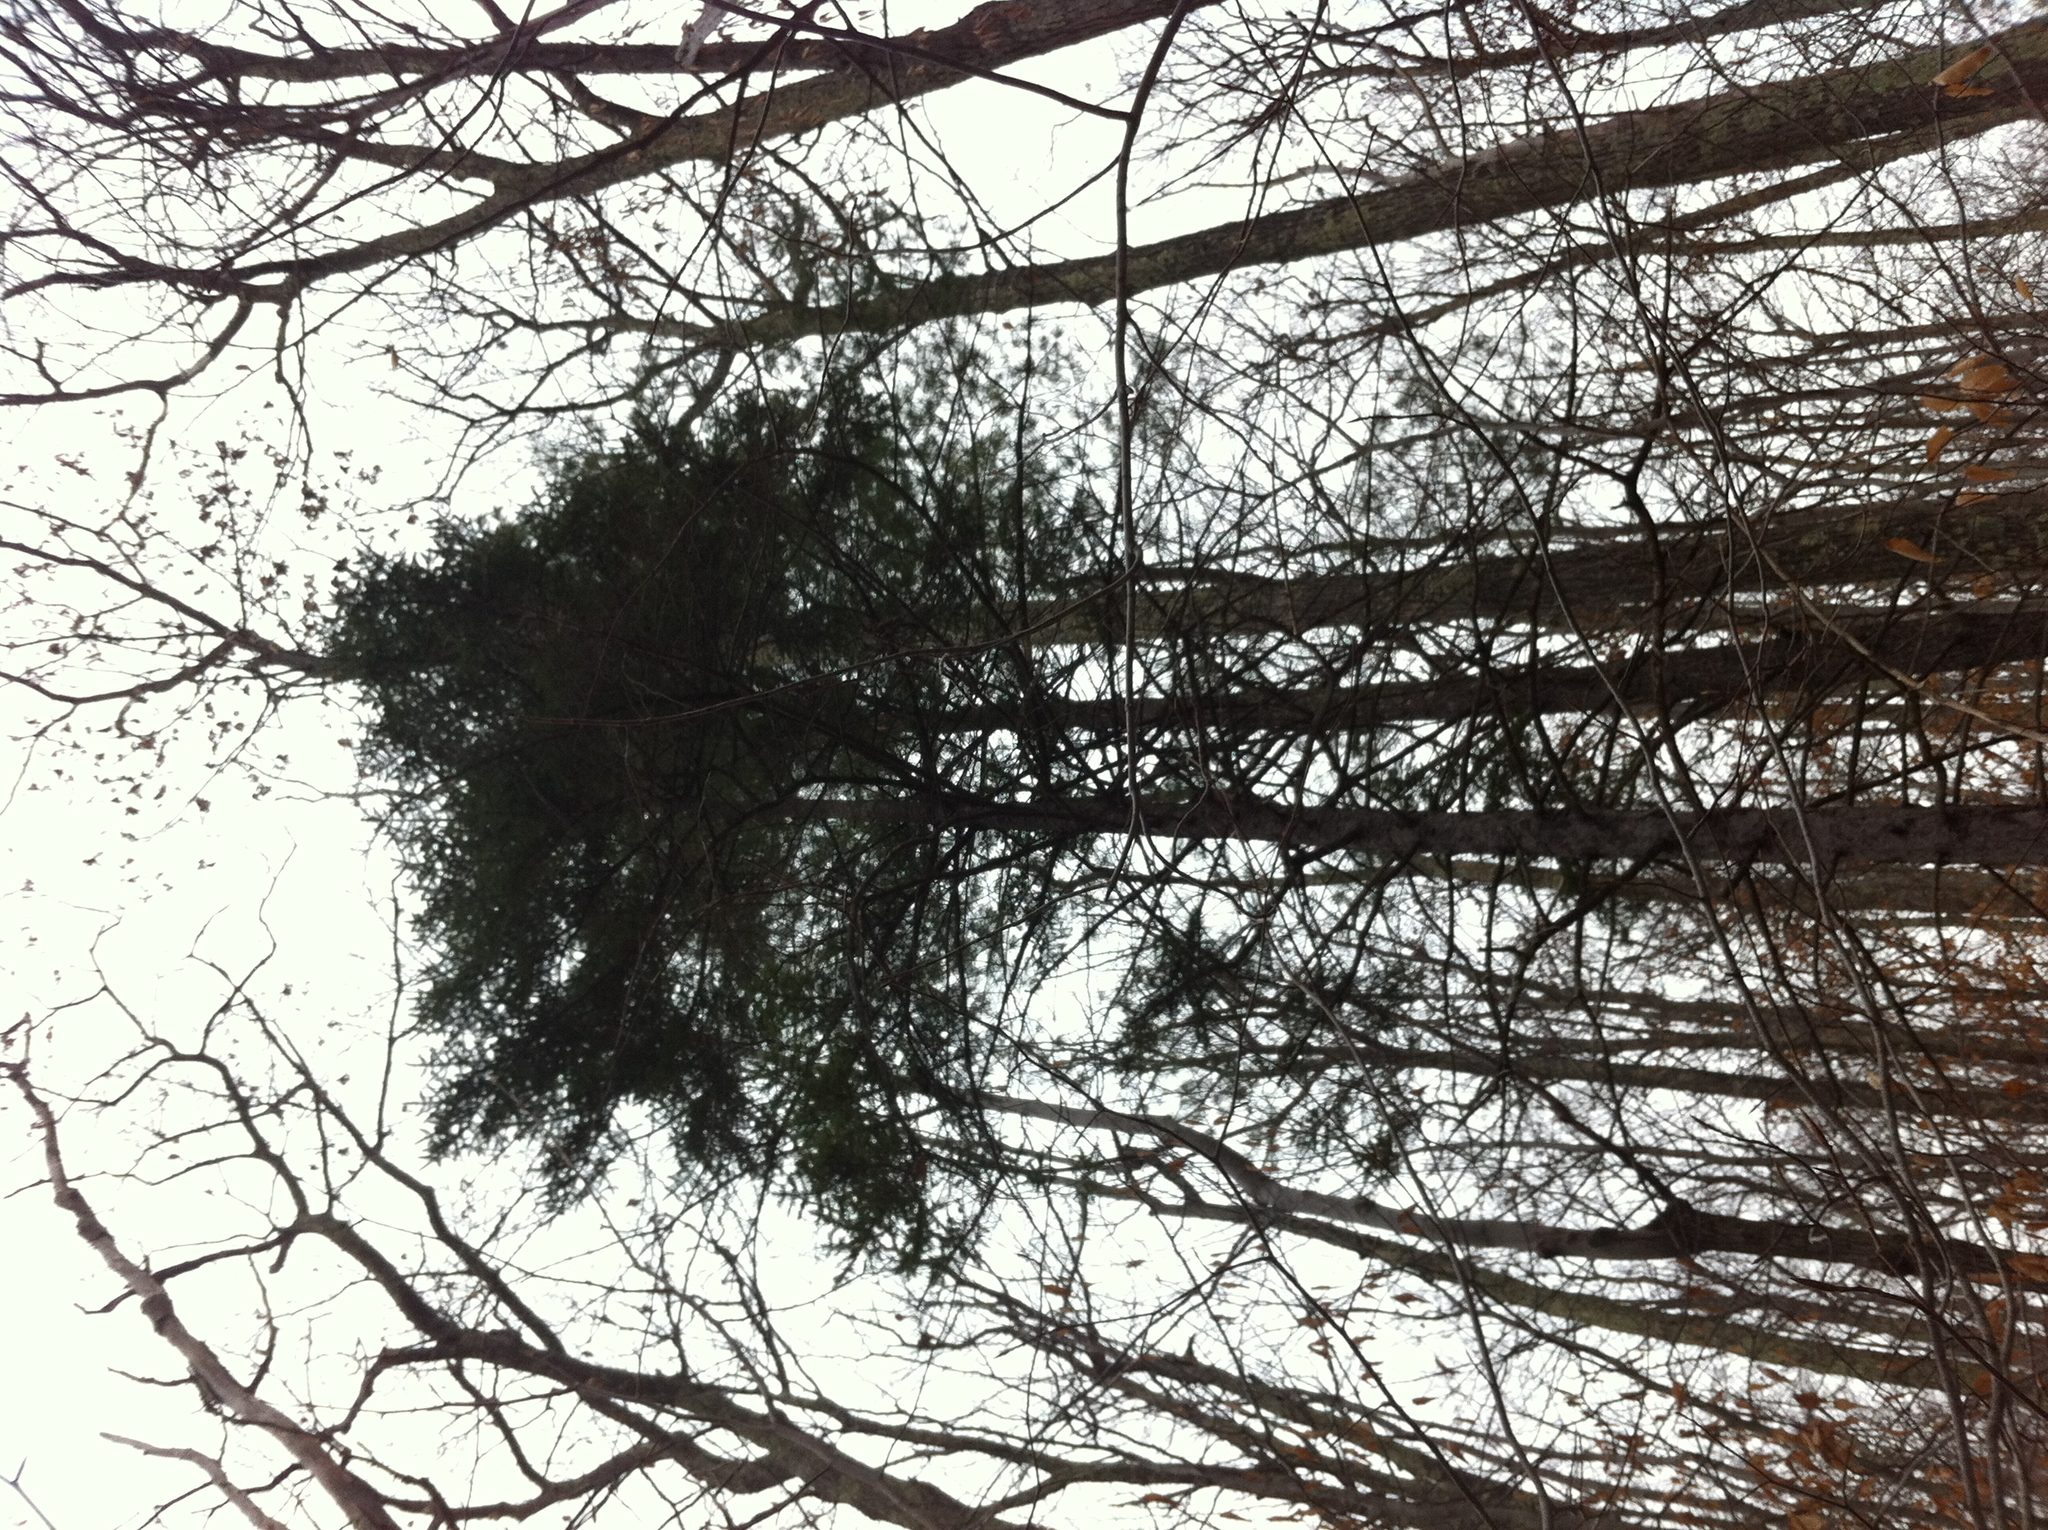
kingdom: Plantae
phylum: Tracheophyta
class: Pinopsida
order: Pinales
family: Pinaceae
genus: Picea
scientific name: Picea rubens
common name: Red spruce
